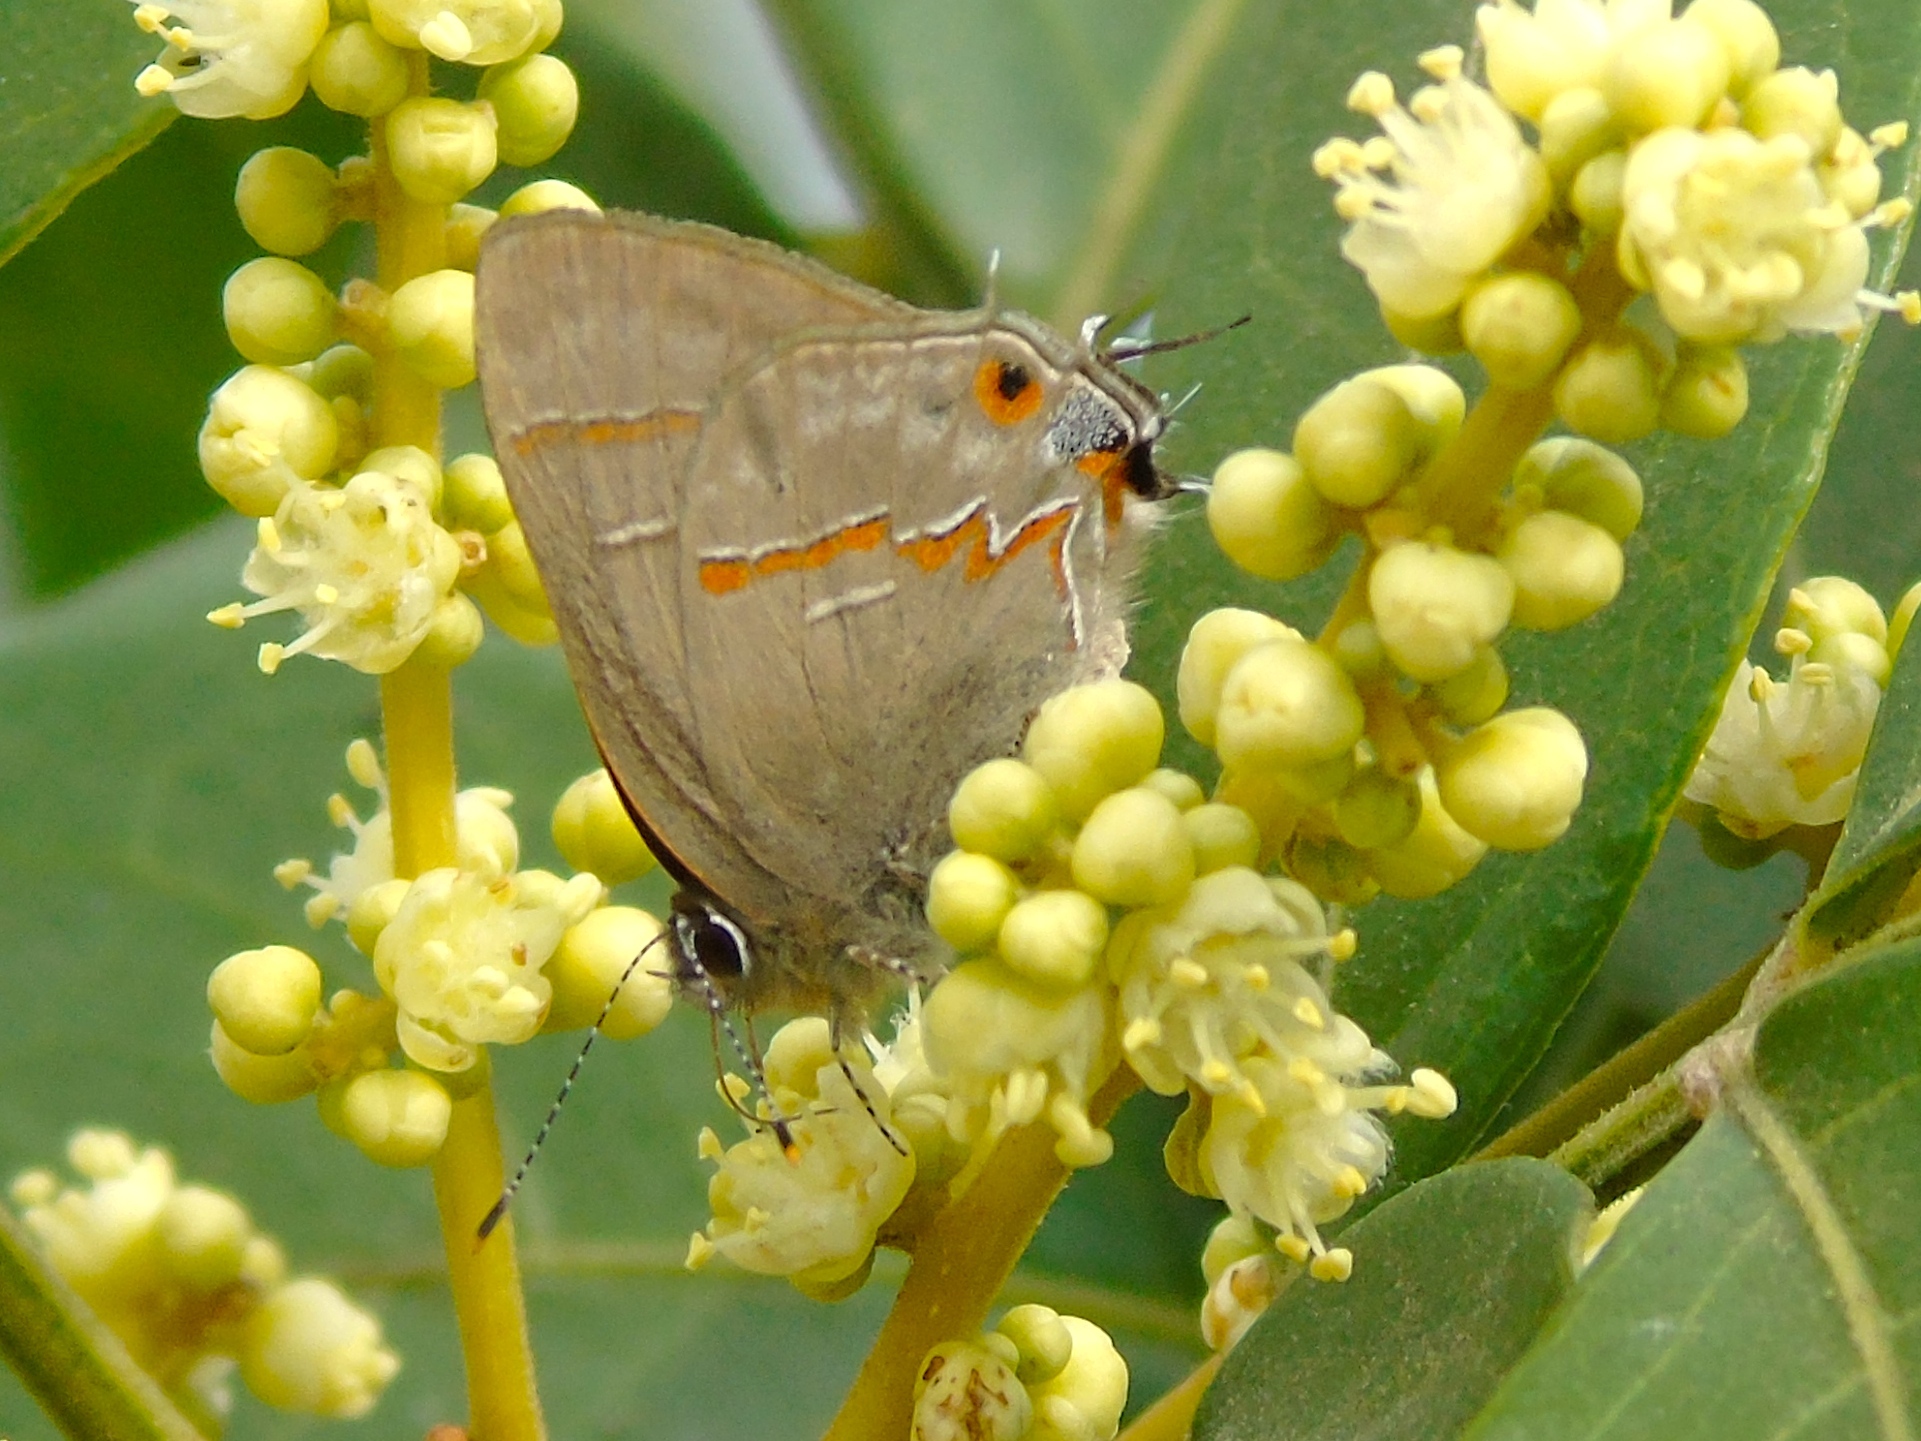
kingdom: Animalia
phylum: Arthropoda
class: Insecta
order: Lepidoptera
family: Lycaenidae
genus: Rubroserrata
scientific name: Rubroserrata mathewi
